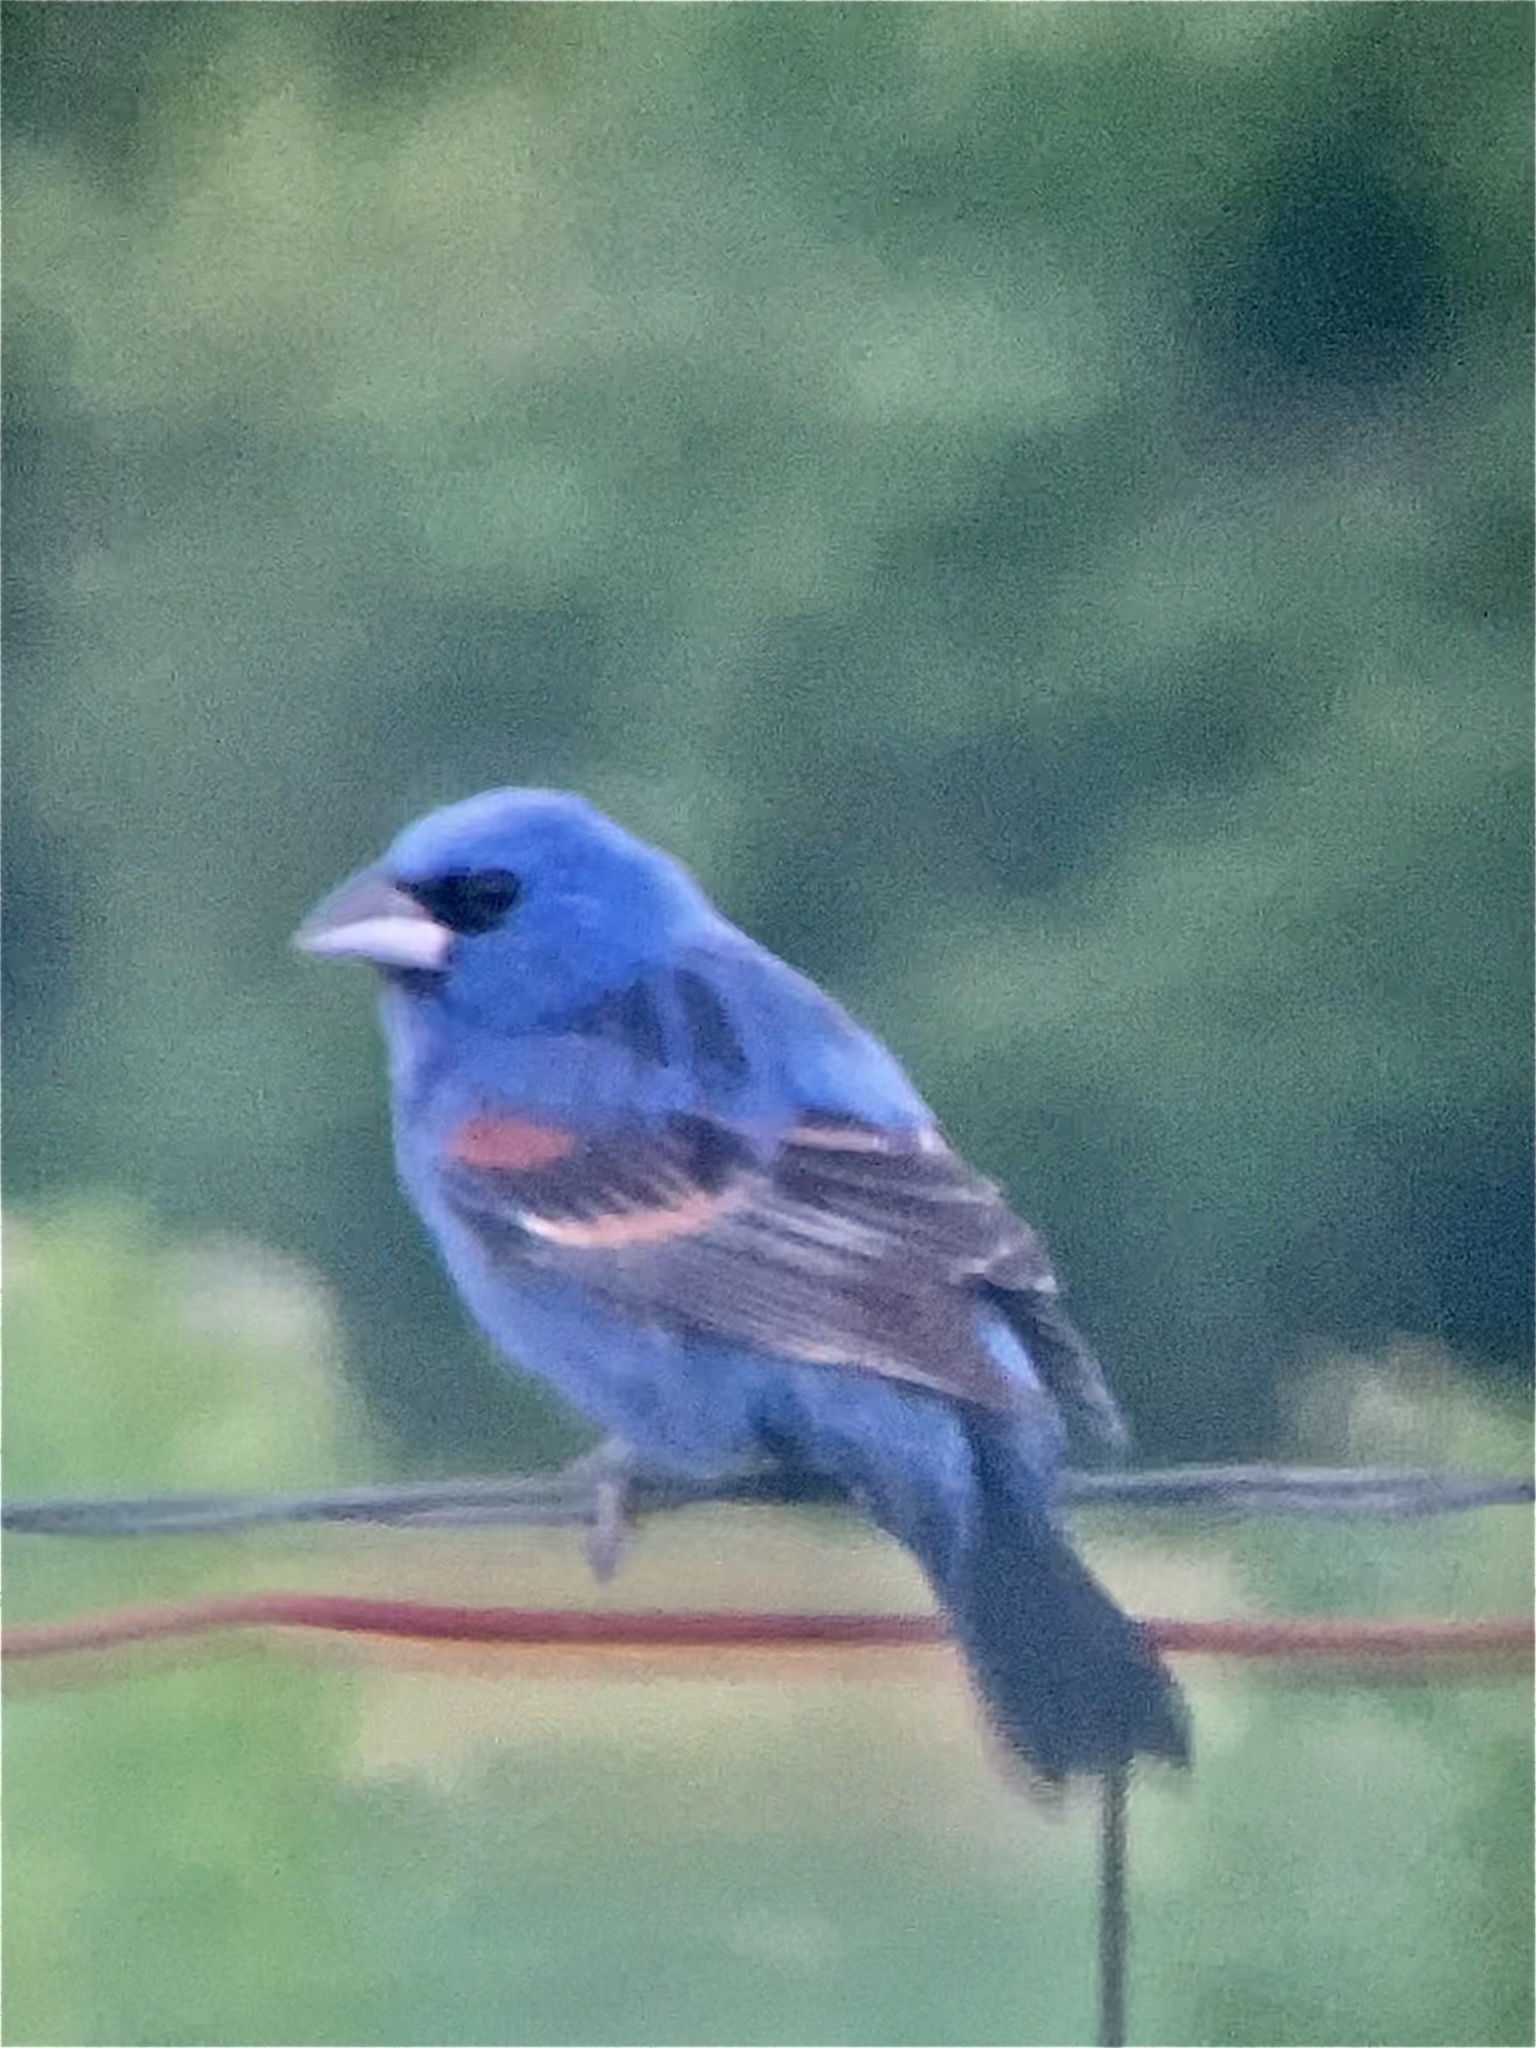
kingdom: Animalia
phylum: Chordata
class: Aves
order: Passeriformes
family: Cardinalidae
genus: Passerina
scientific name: Passerina caerulea
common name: Blue grosbeak
